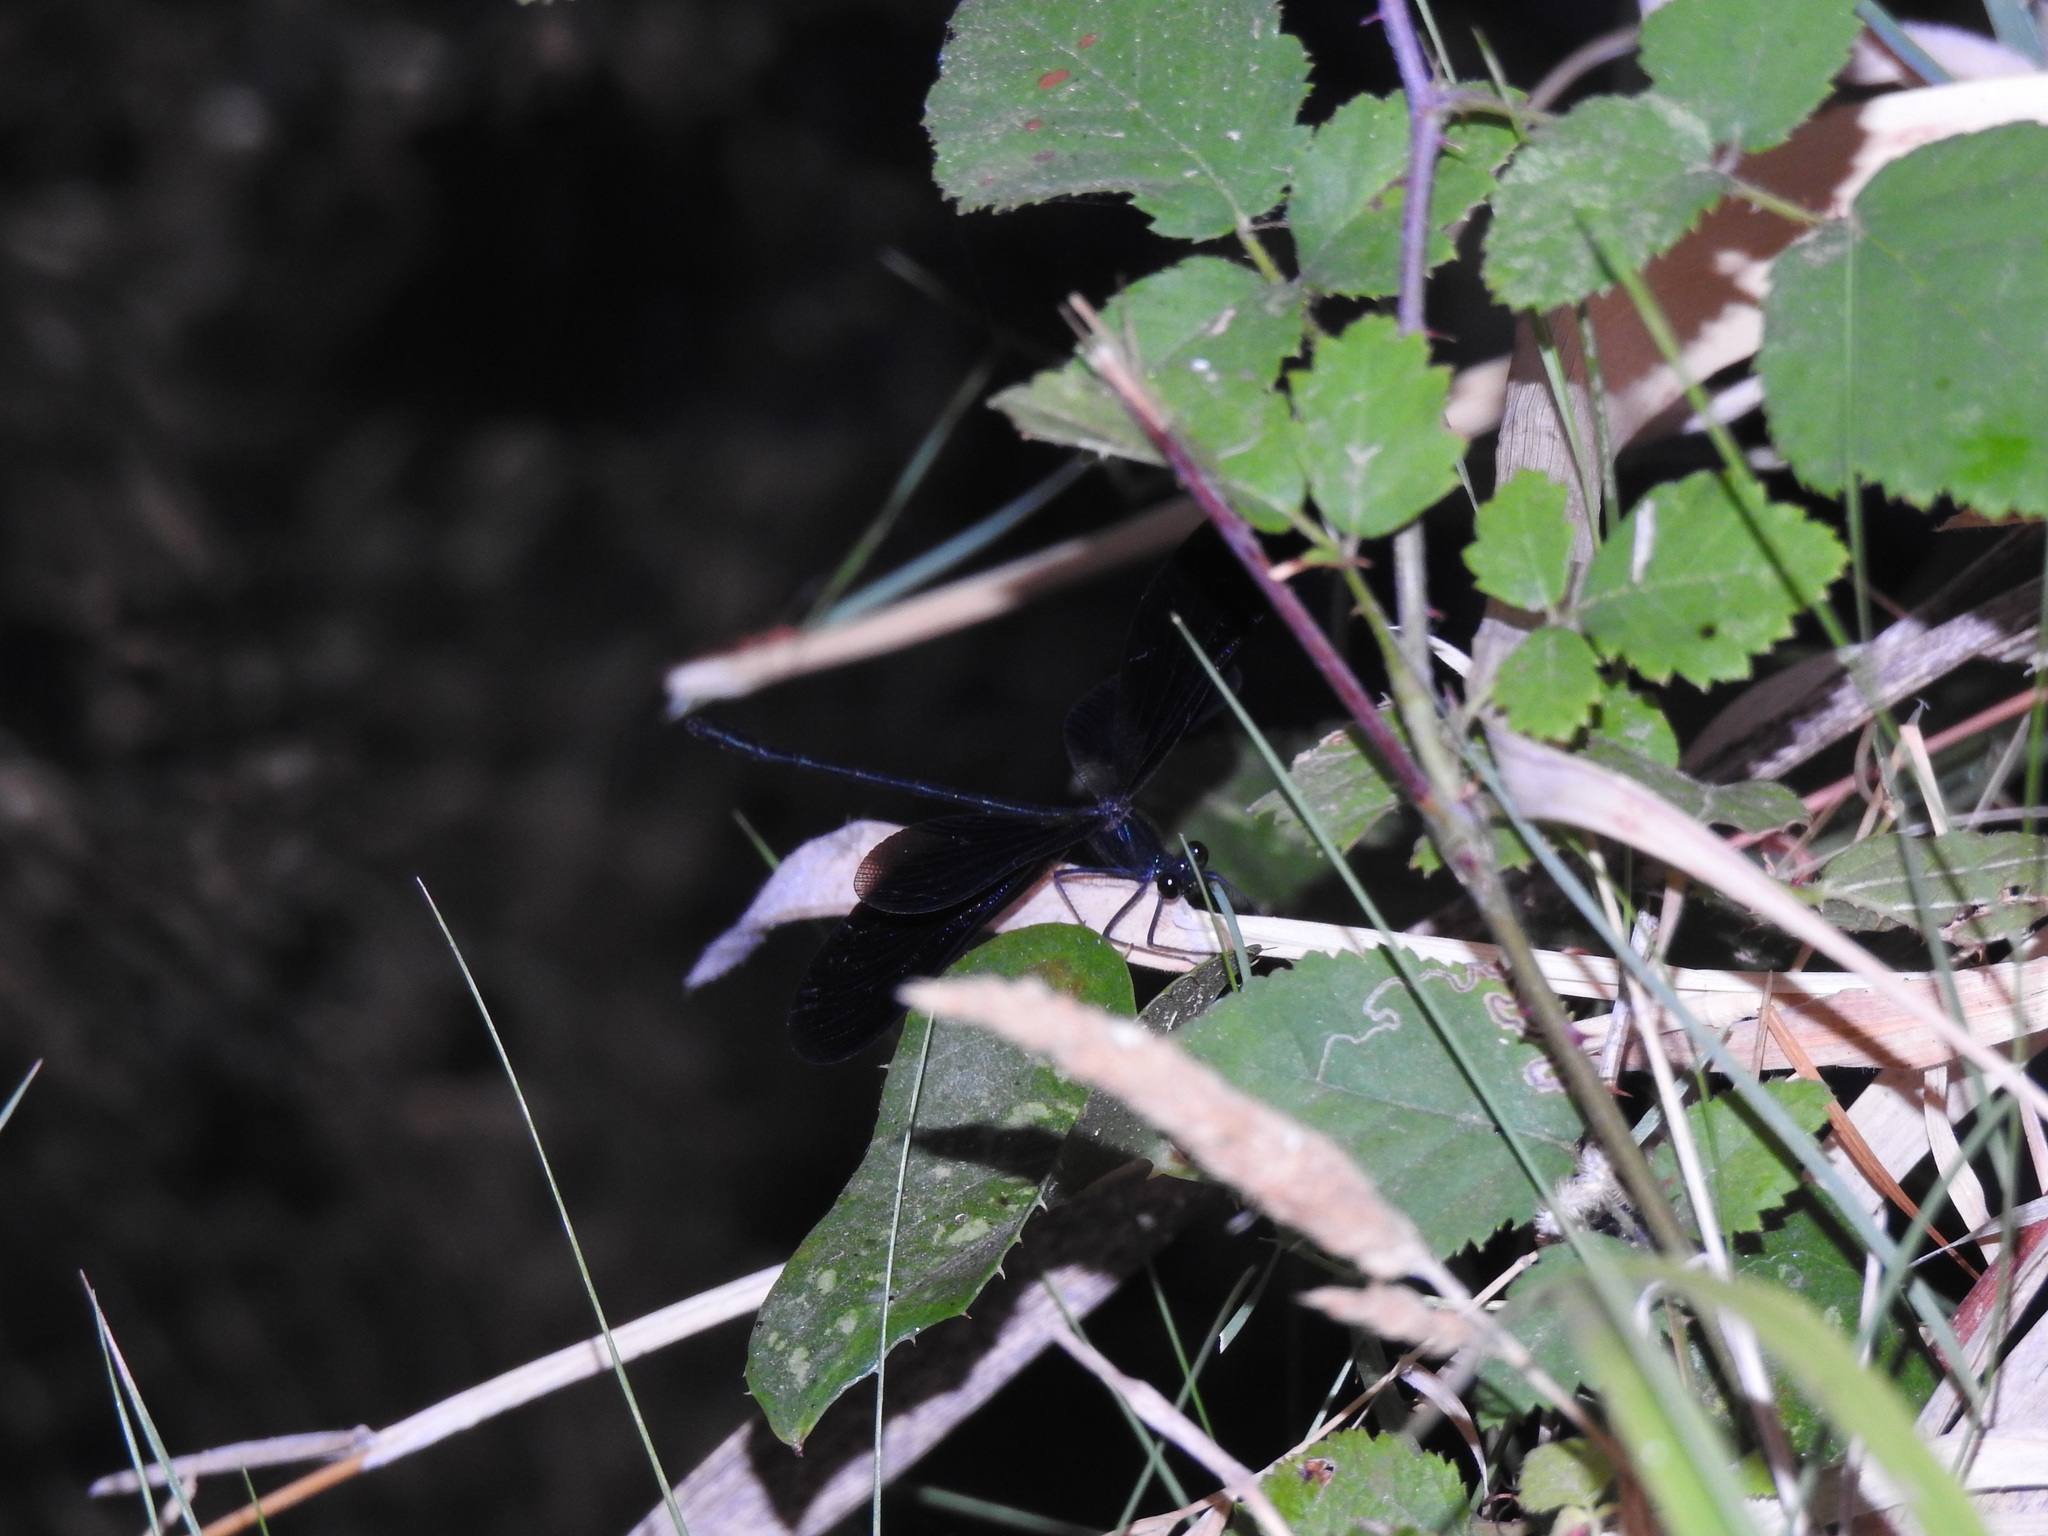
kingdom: Animalia
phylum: Arthropoda
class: Insecta
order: Odonata
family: Calopterygidae
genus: Calopteryx
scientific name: Calopteryx haemorrhoidalis
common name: Copper demoiselle
